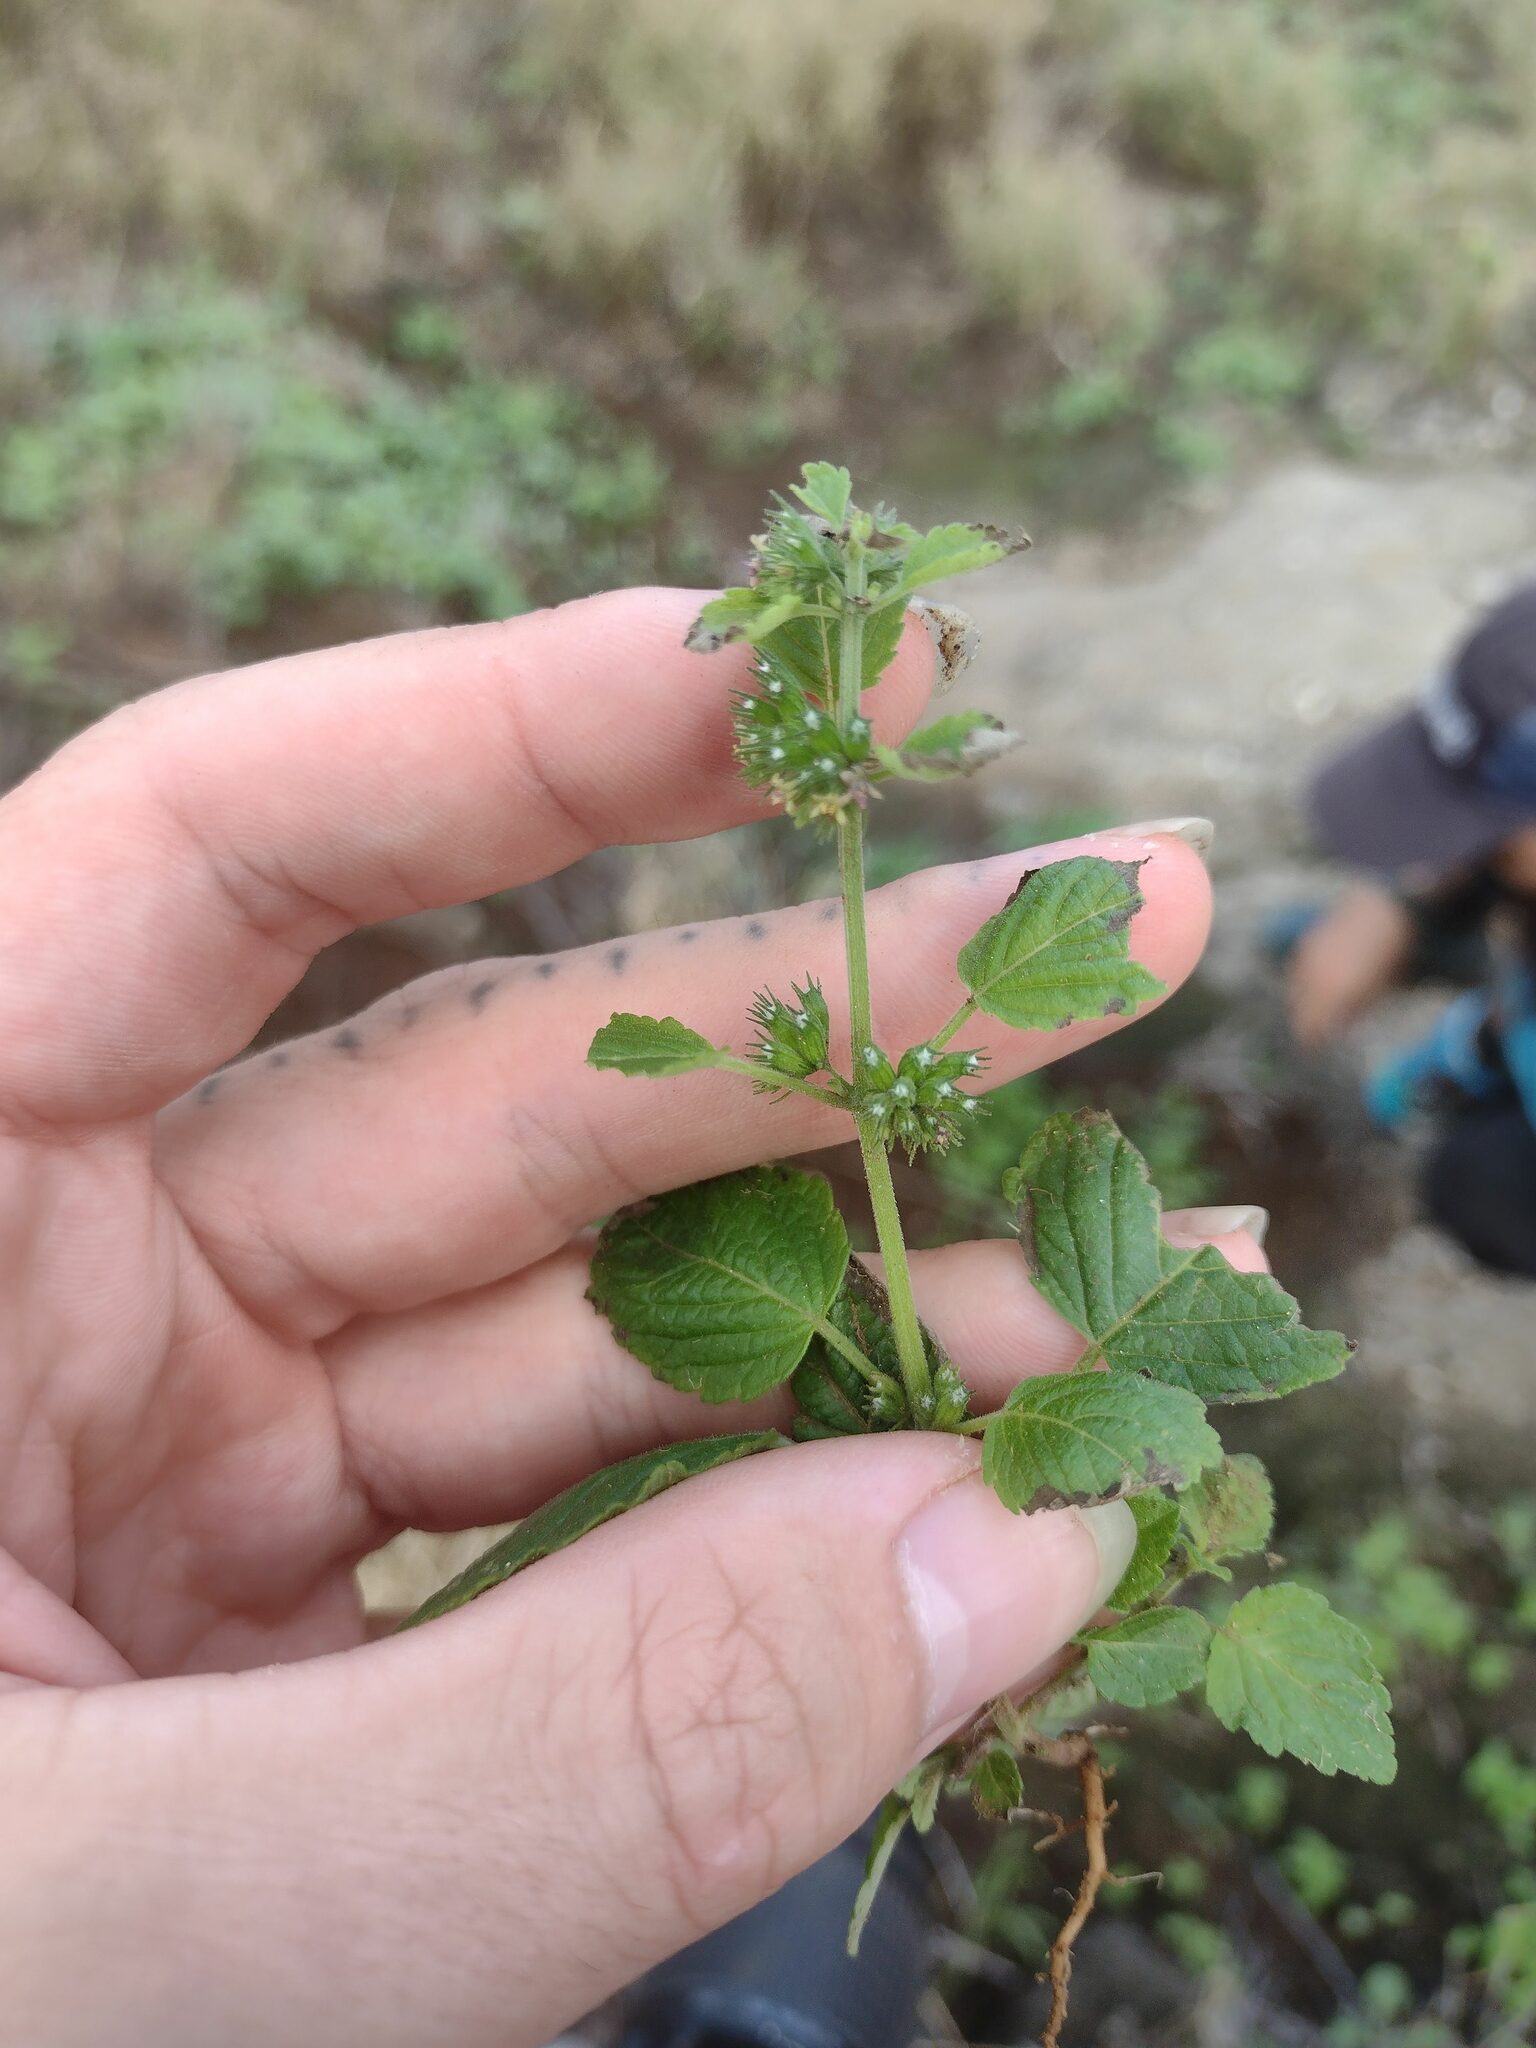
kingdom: Plantae
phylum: Tracheophyta
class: Magnoliopsida
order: Lamiales
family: Lamiaceae
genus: Mesosphaerum
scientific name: Mesosphaerum pectinatum
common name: Comb hyptis
